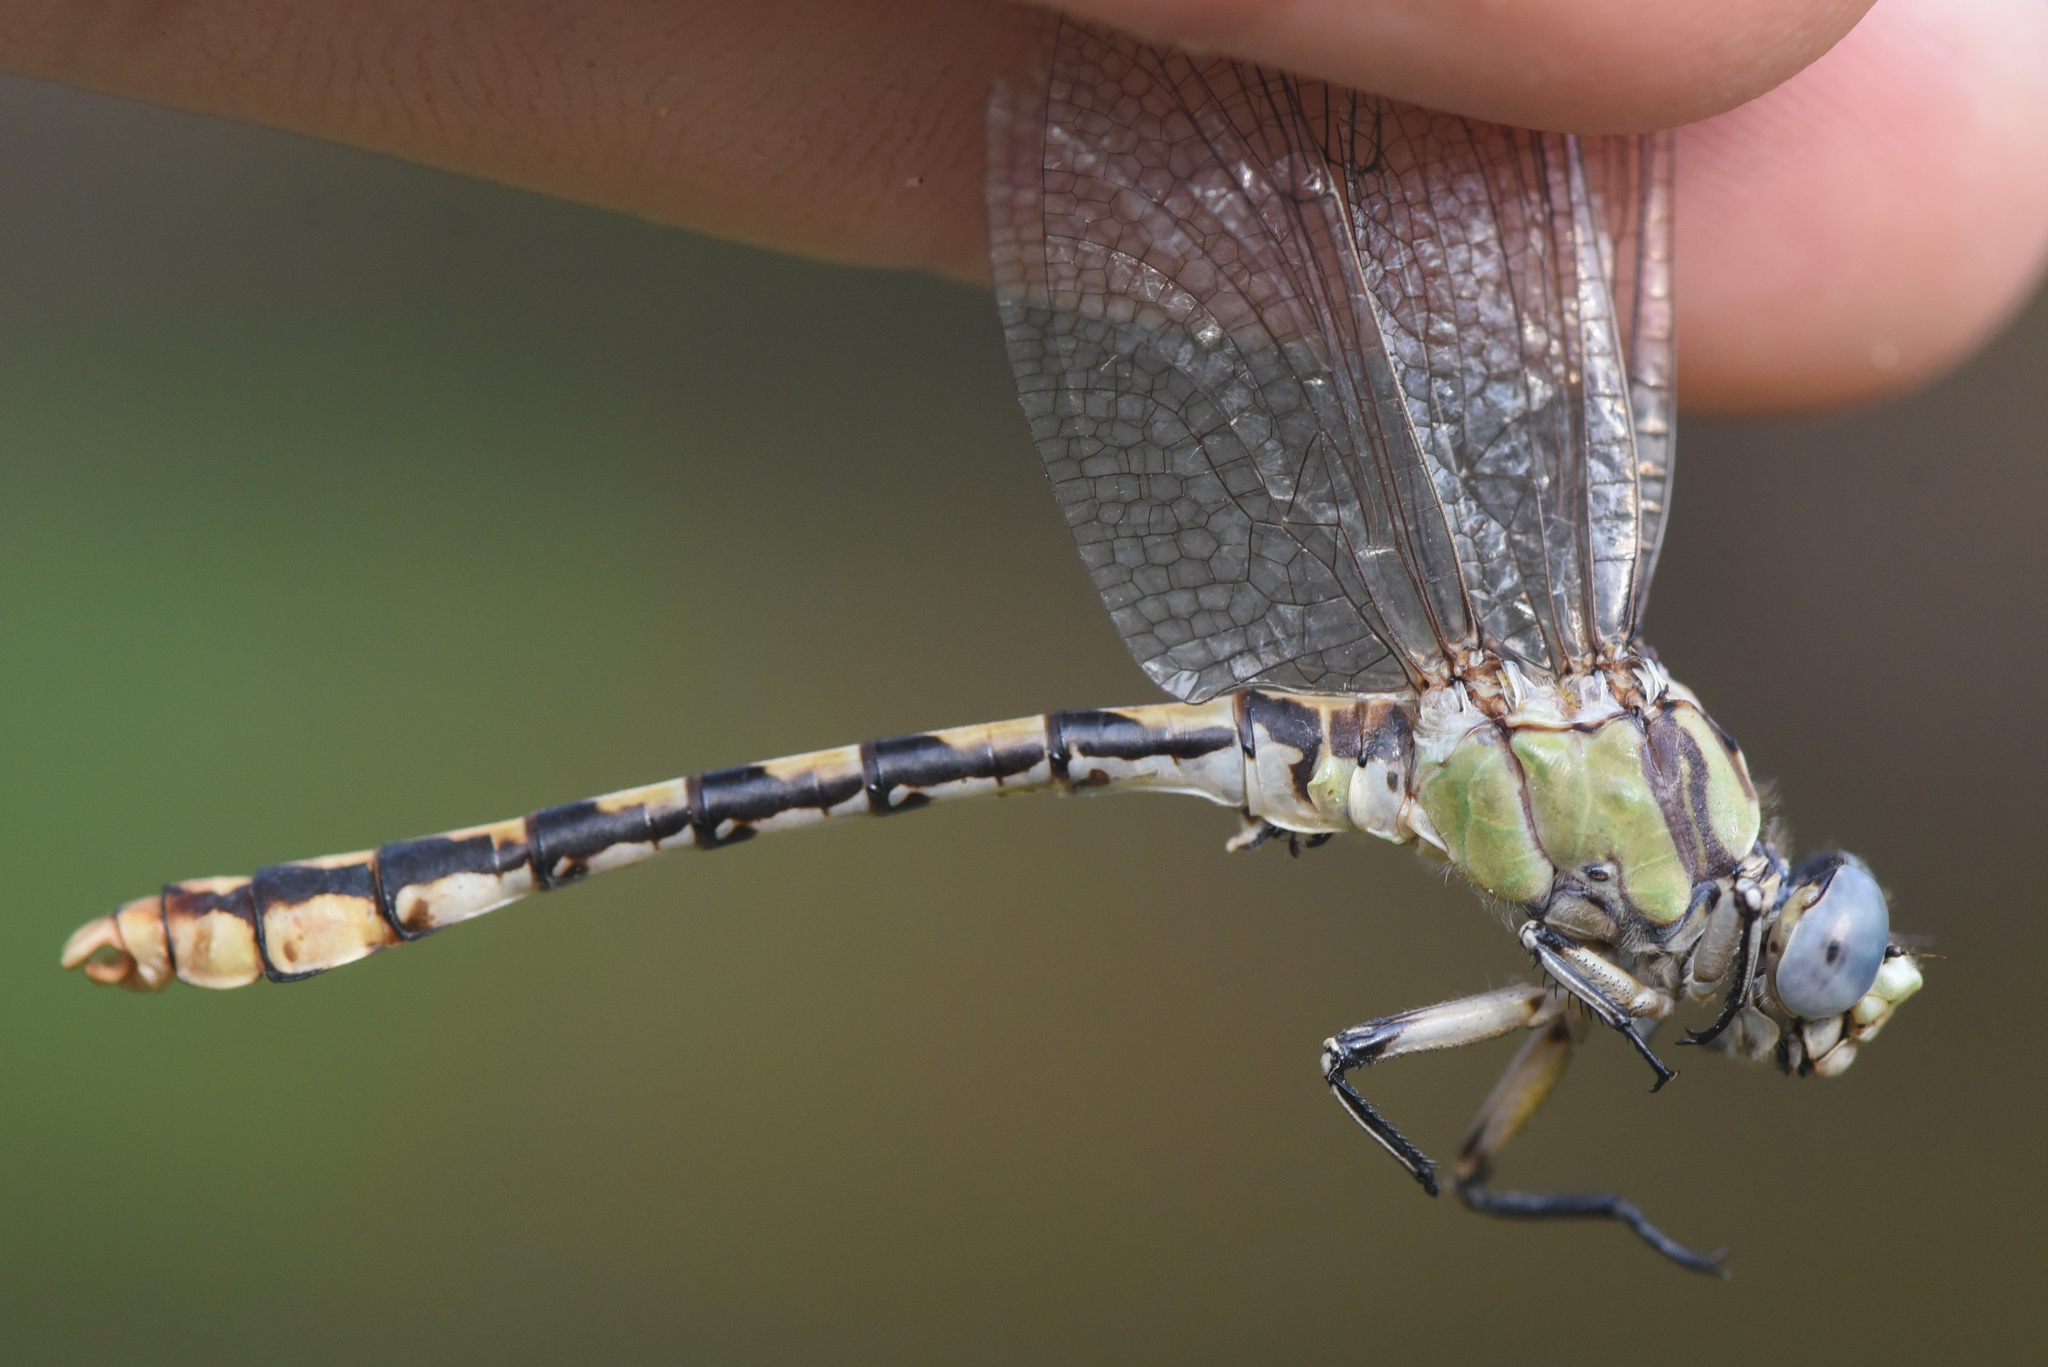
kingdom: Animalia
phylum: Arthropoda
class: Insecta
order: Odonata
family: Gomphidae
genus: Ophiogomphus
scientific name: Ophiogomphus occidentis
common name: Sinuous snaketail
